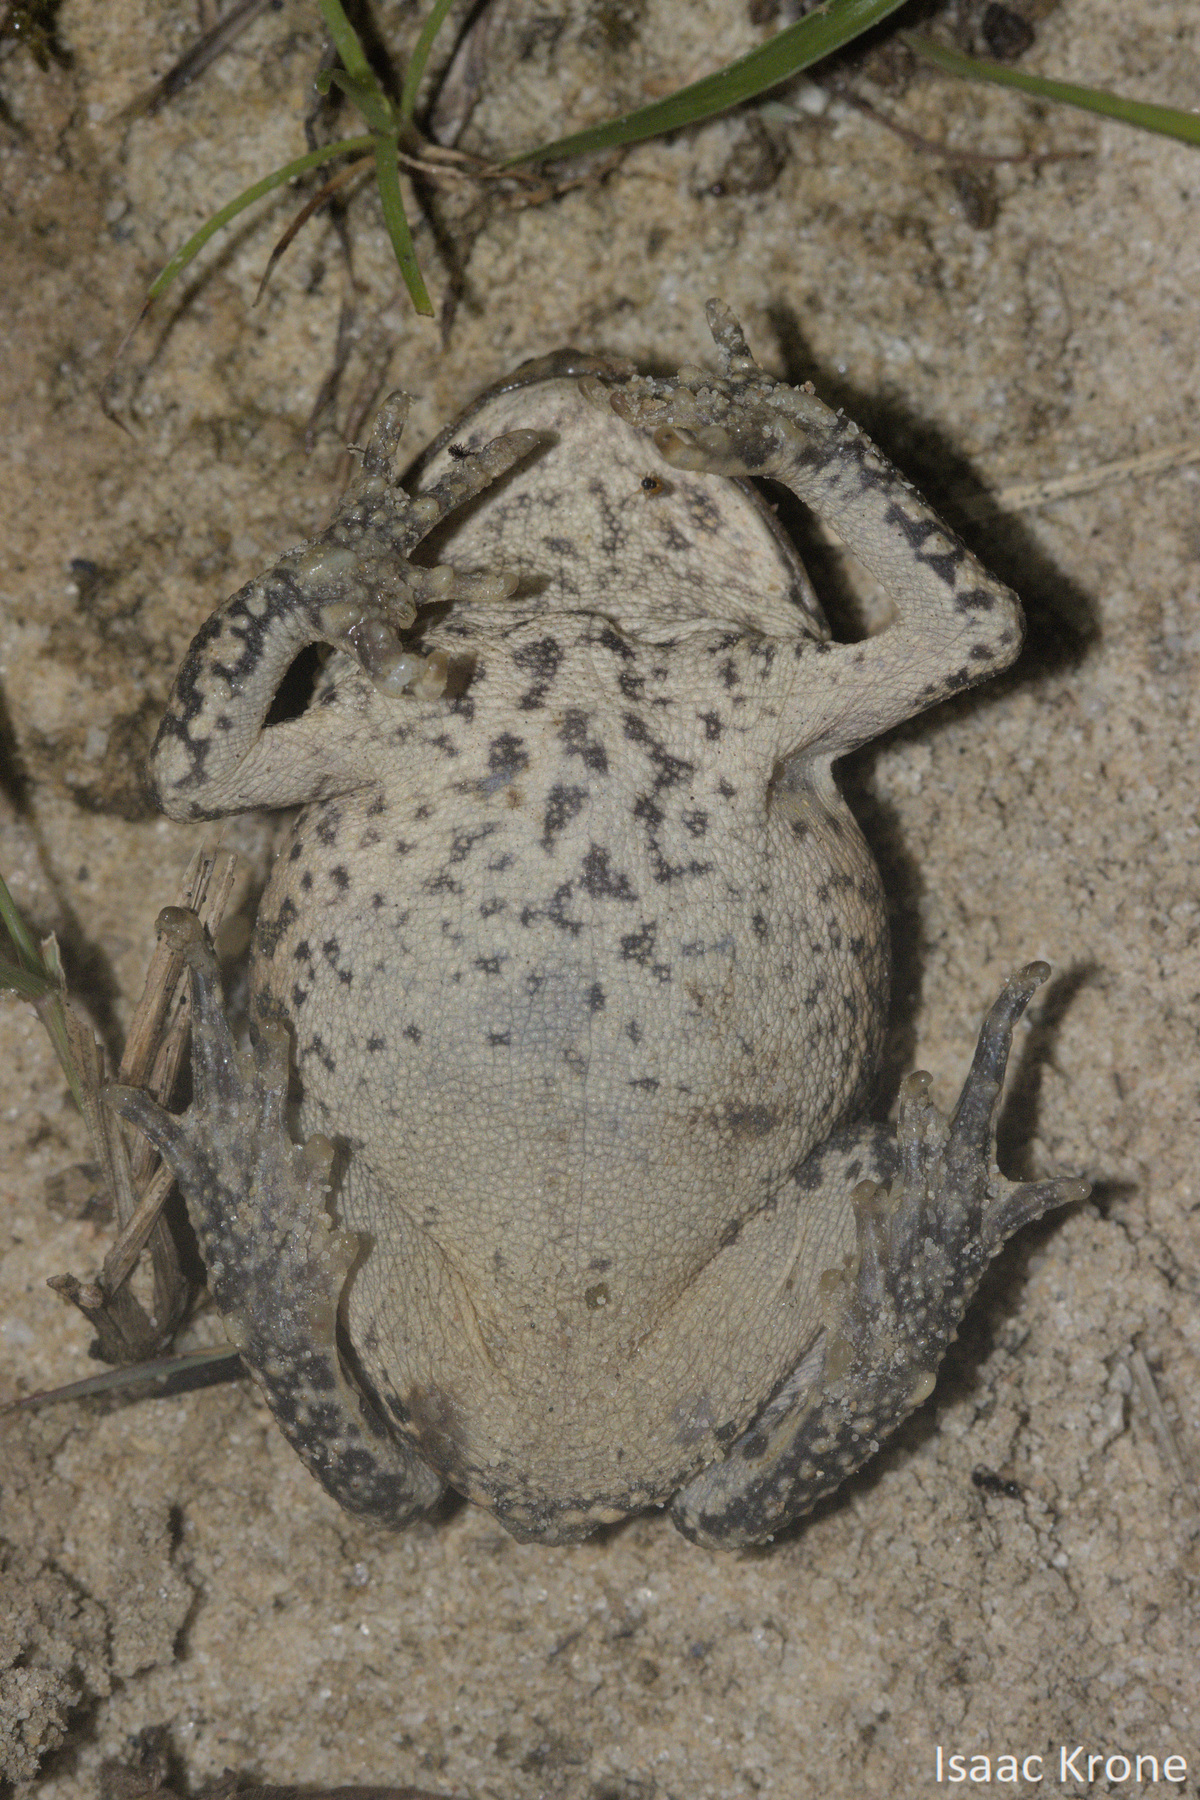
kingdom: Animalia
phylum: Chordata
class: Amphibia
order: Anura
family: Bufonidae
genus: Rhinella
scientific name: Rhinella marina
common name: Cane toad
